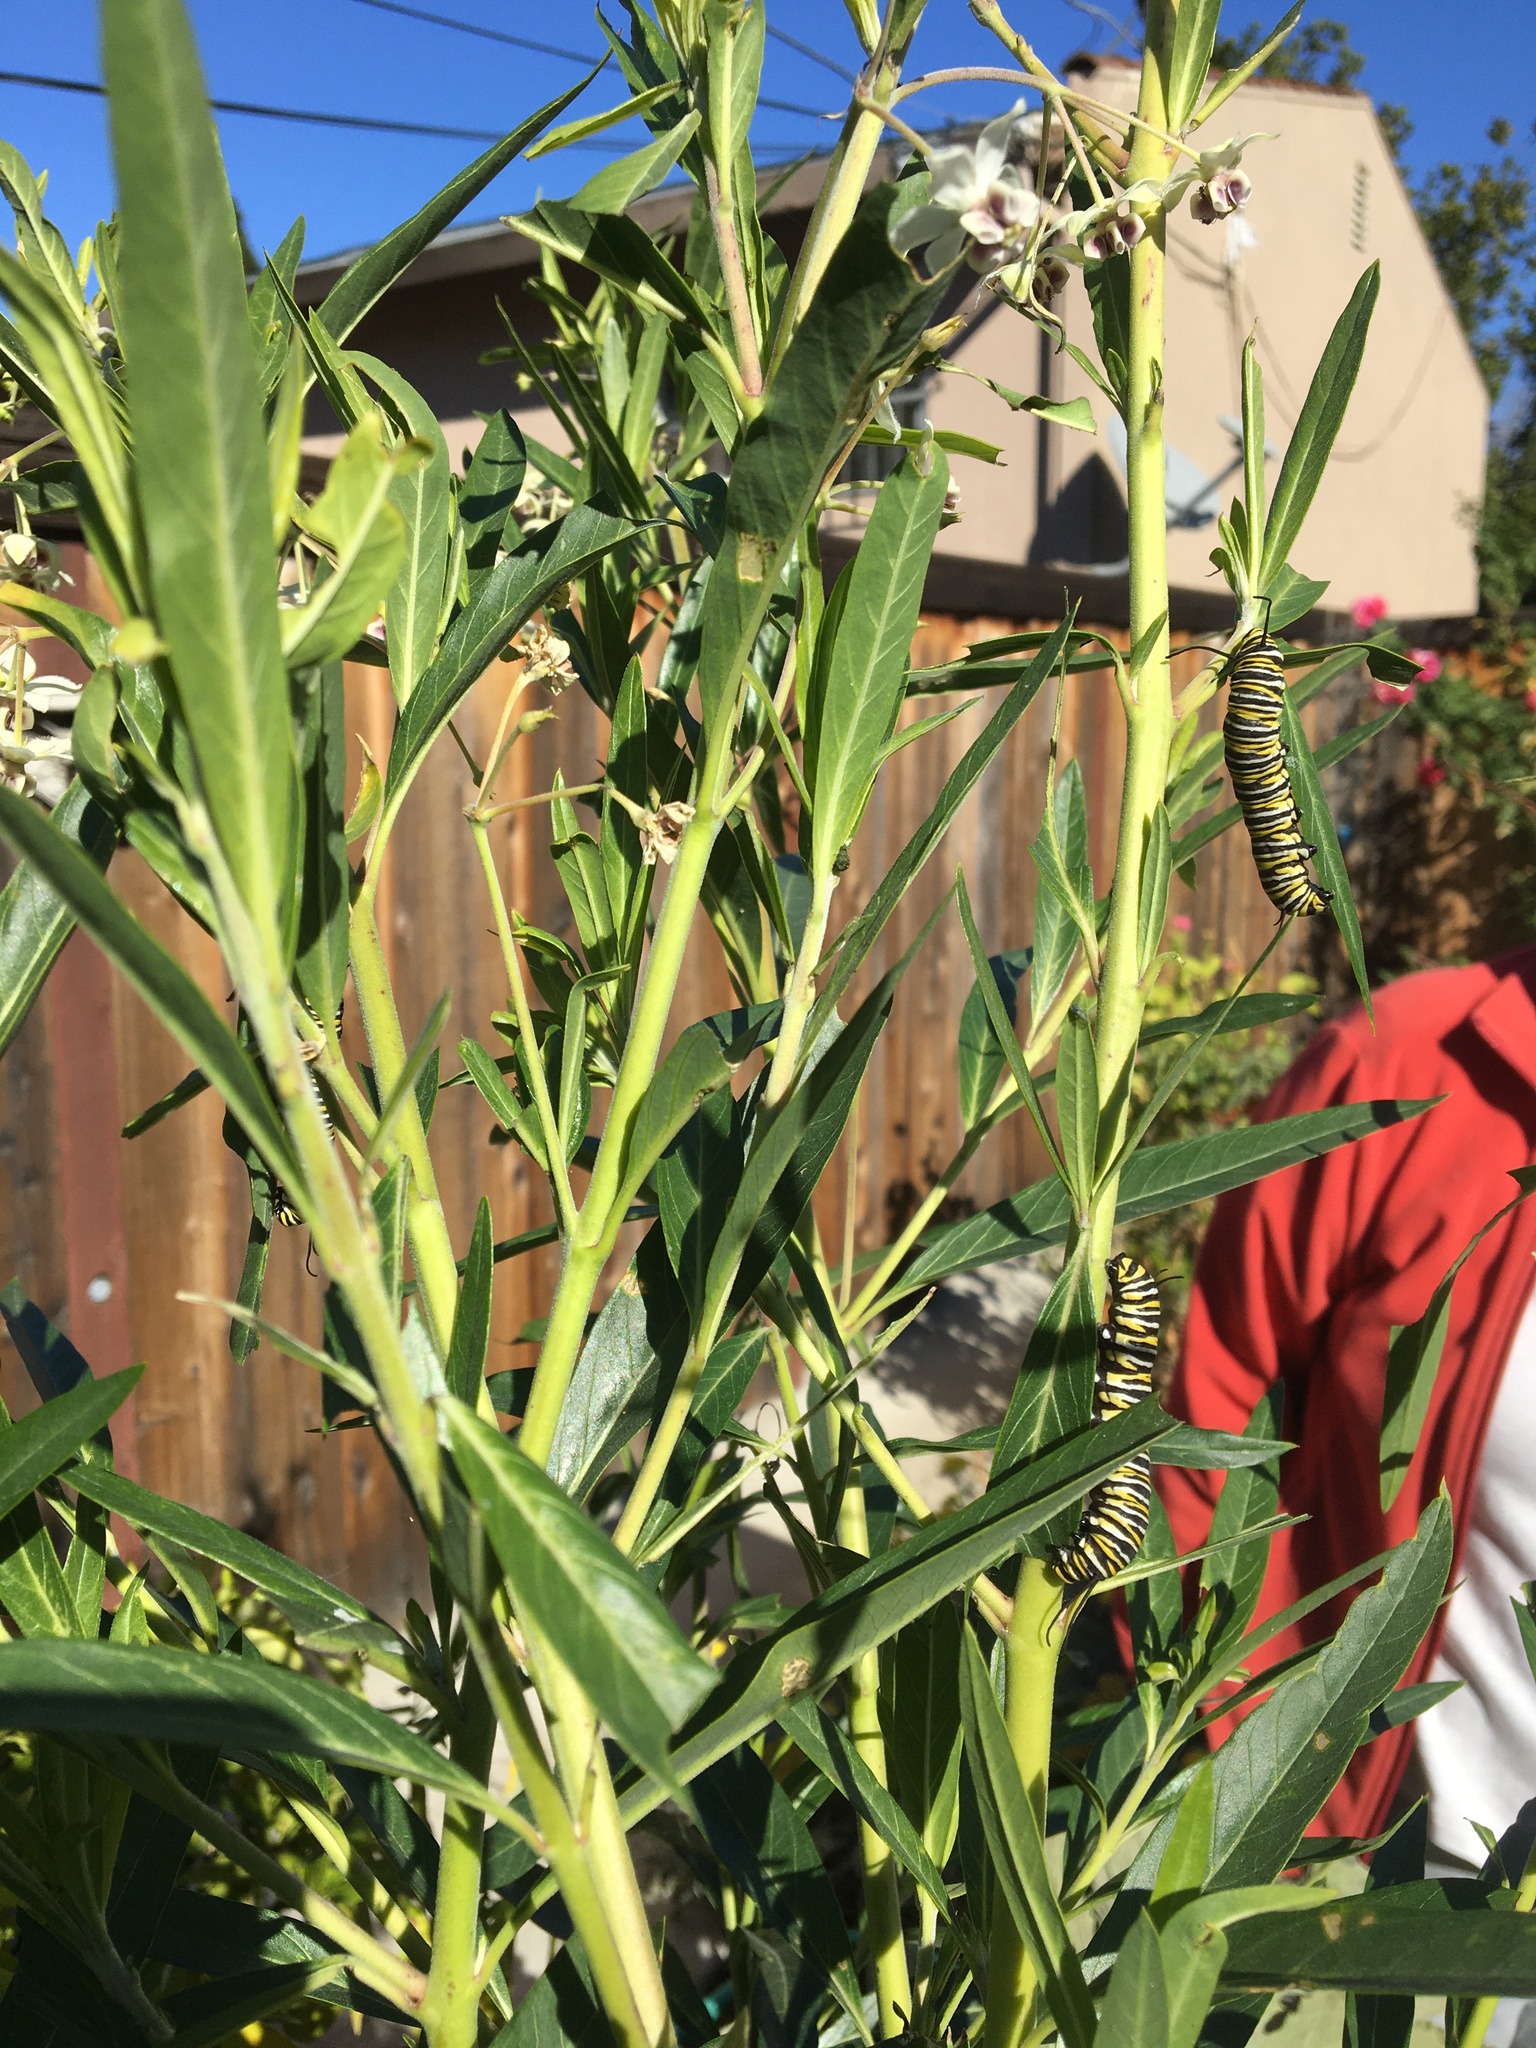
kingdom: Animalia
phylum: Arthropoda
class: Insecta
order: Lepidoptera
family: Nymphalidae
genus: Danaus
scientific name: Danaus plexippus
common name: Monarch
